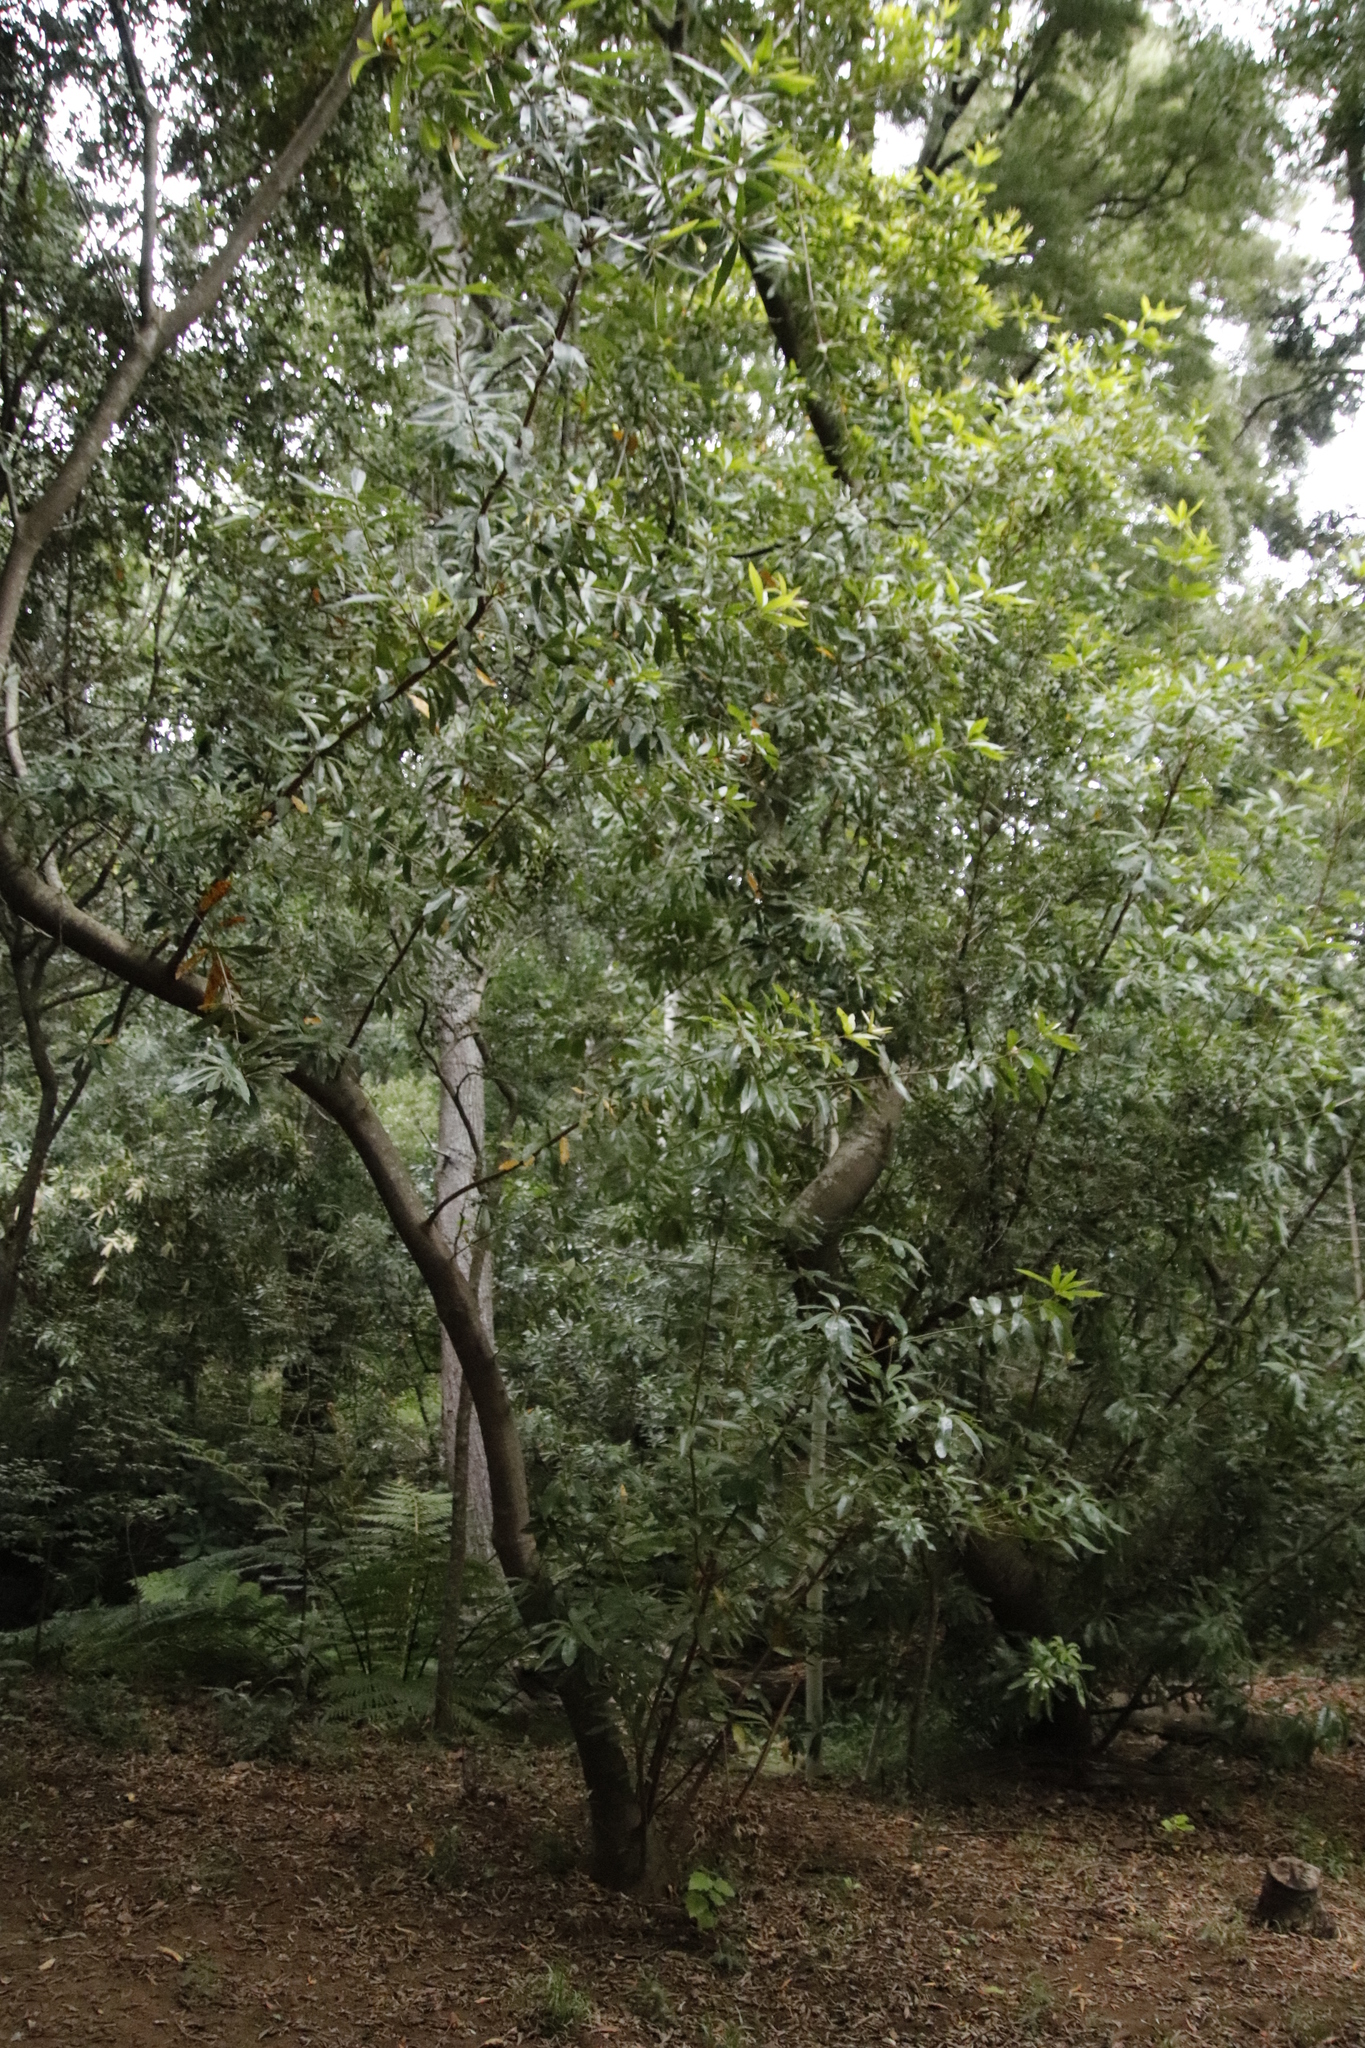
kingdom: Plantae
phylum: Tracheophyta
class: Magnoliopsida
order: Proteales
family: Proteaceae
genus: Brabejum
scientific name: Brabejum stellatifolium
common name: Wild almond
